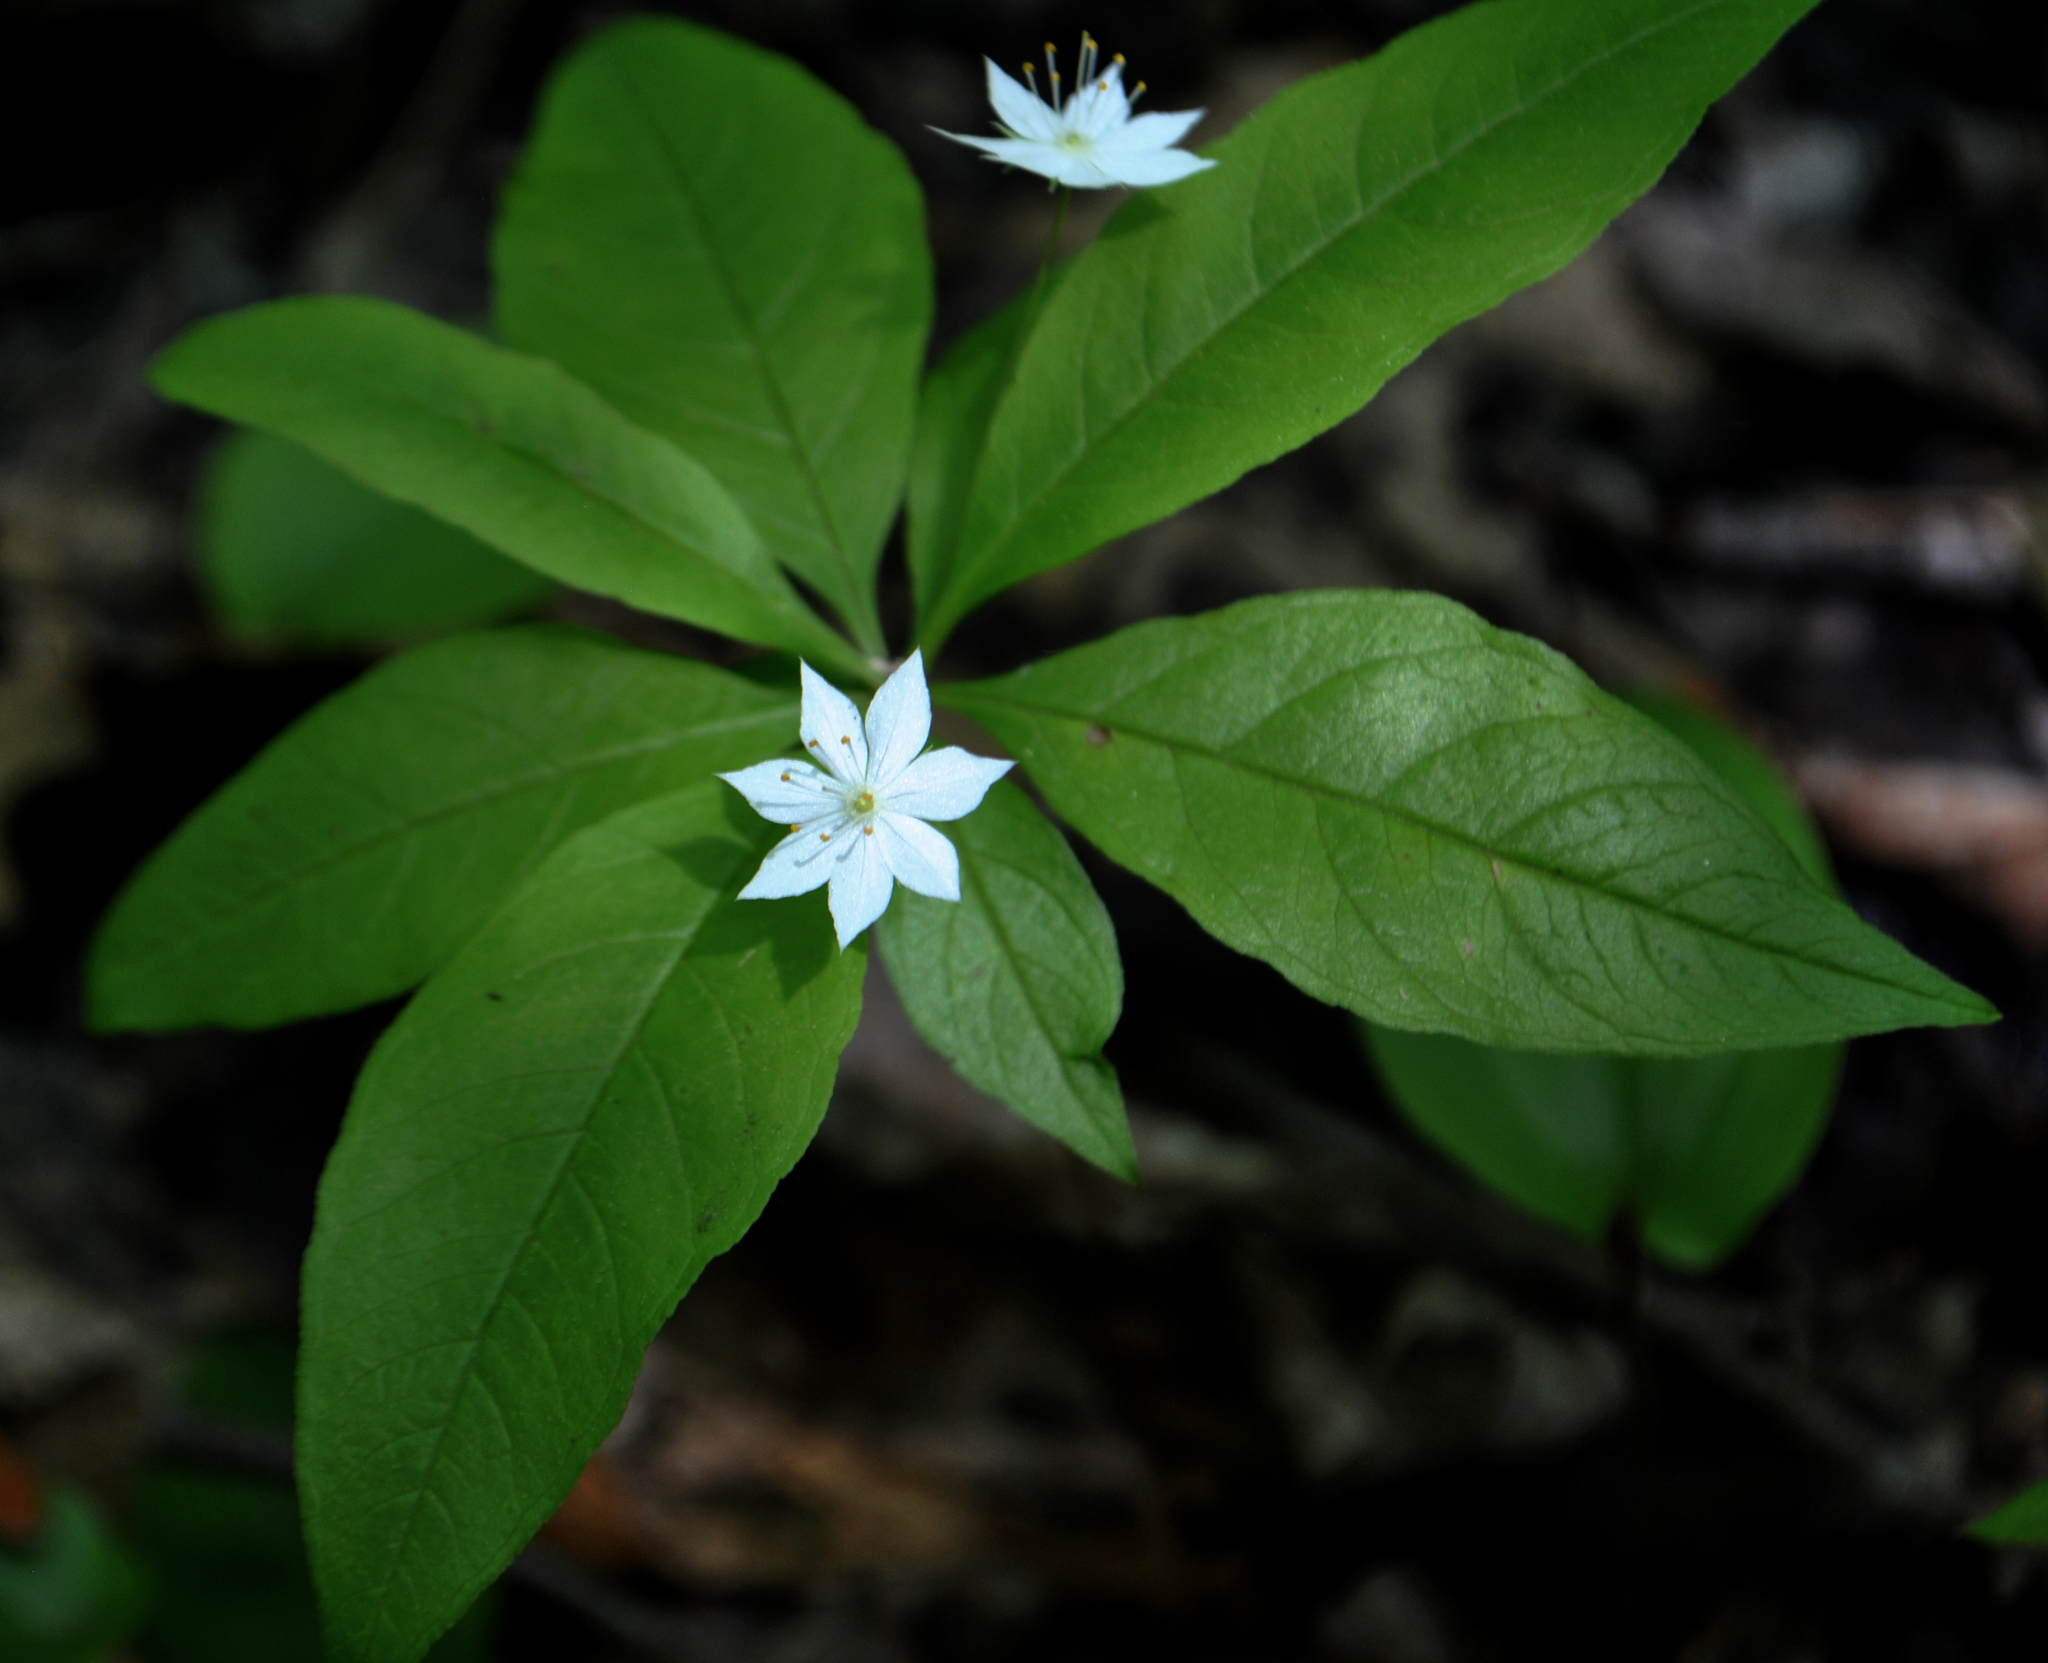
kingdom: Plantae
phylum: Tracheophyta
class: Magnoliopsida
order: Ericales
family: Primulaceae
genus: Lysimachia
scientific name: Lysimachia borealis
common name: American starflower
